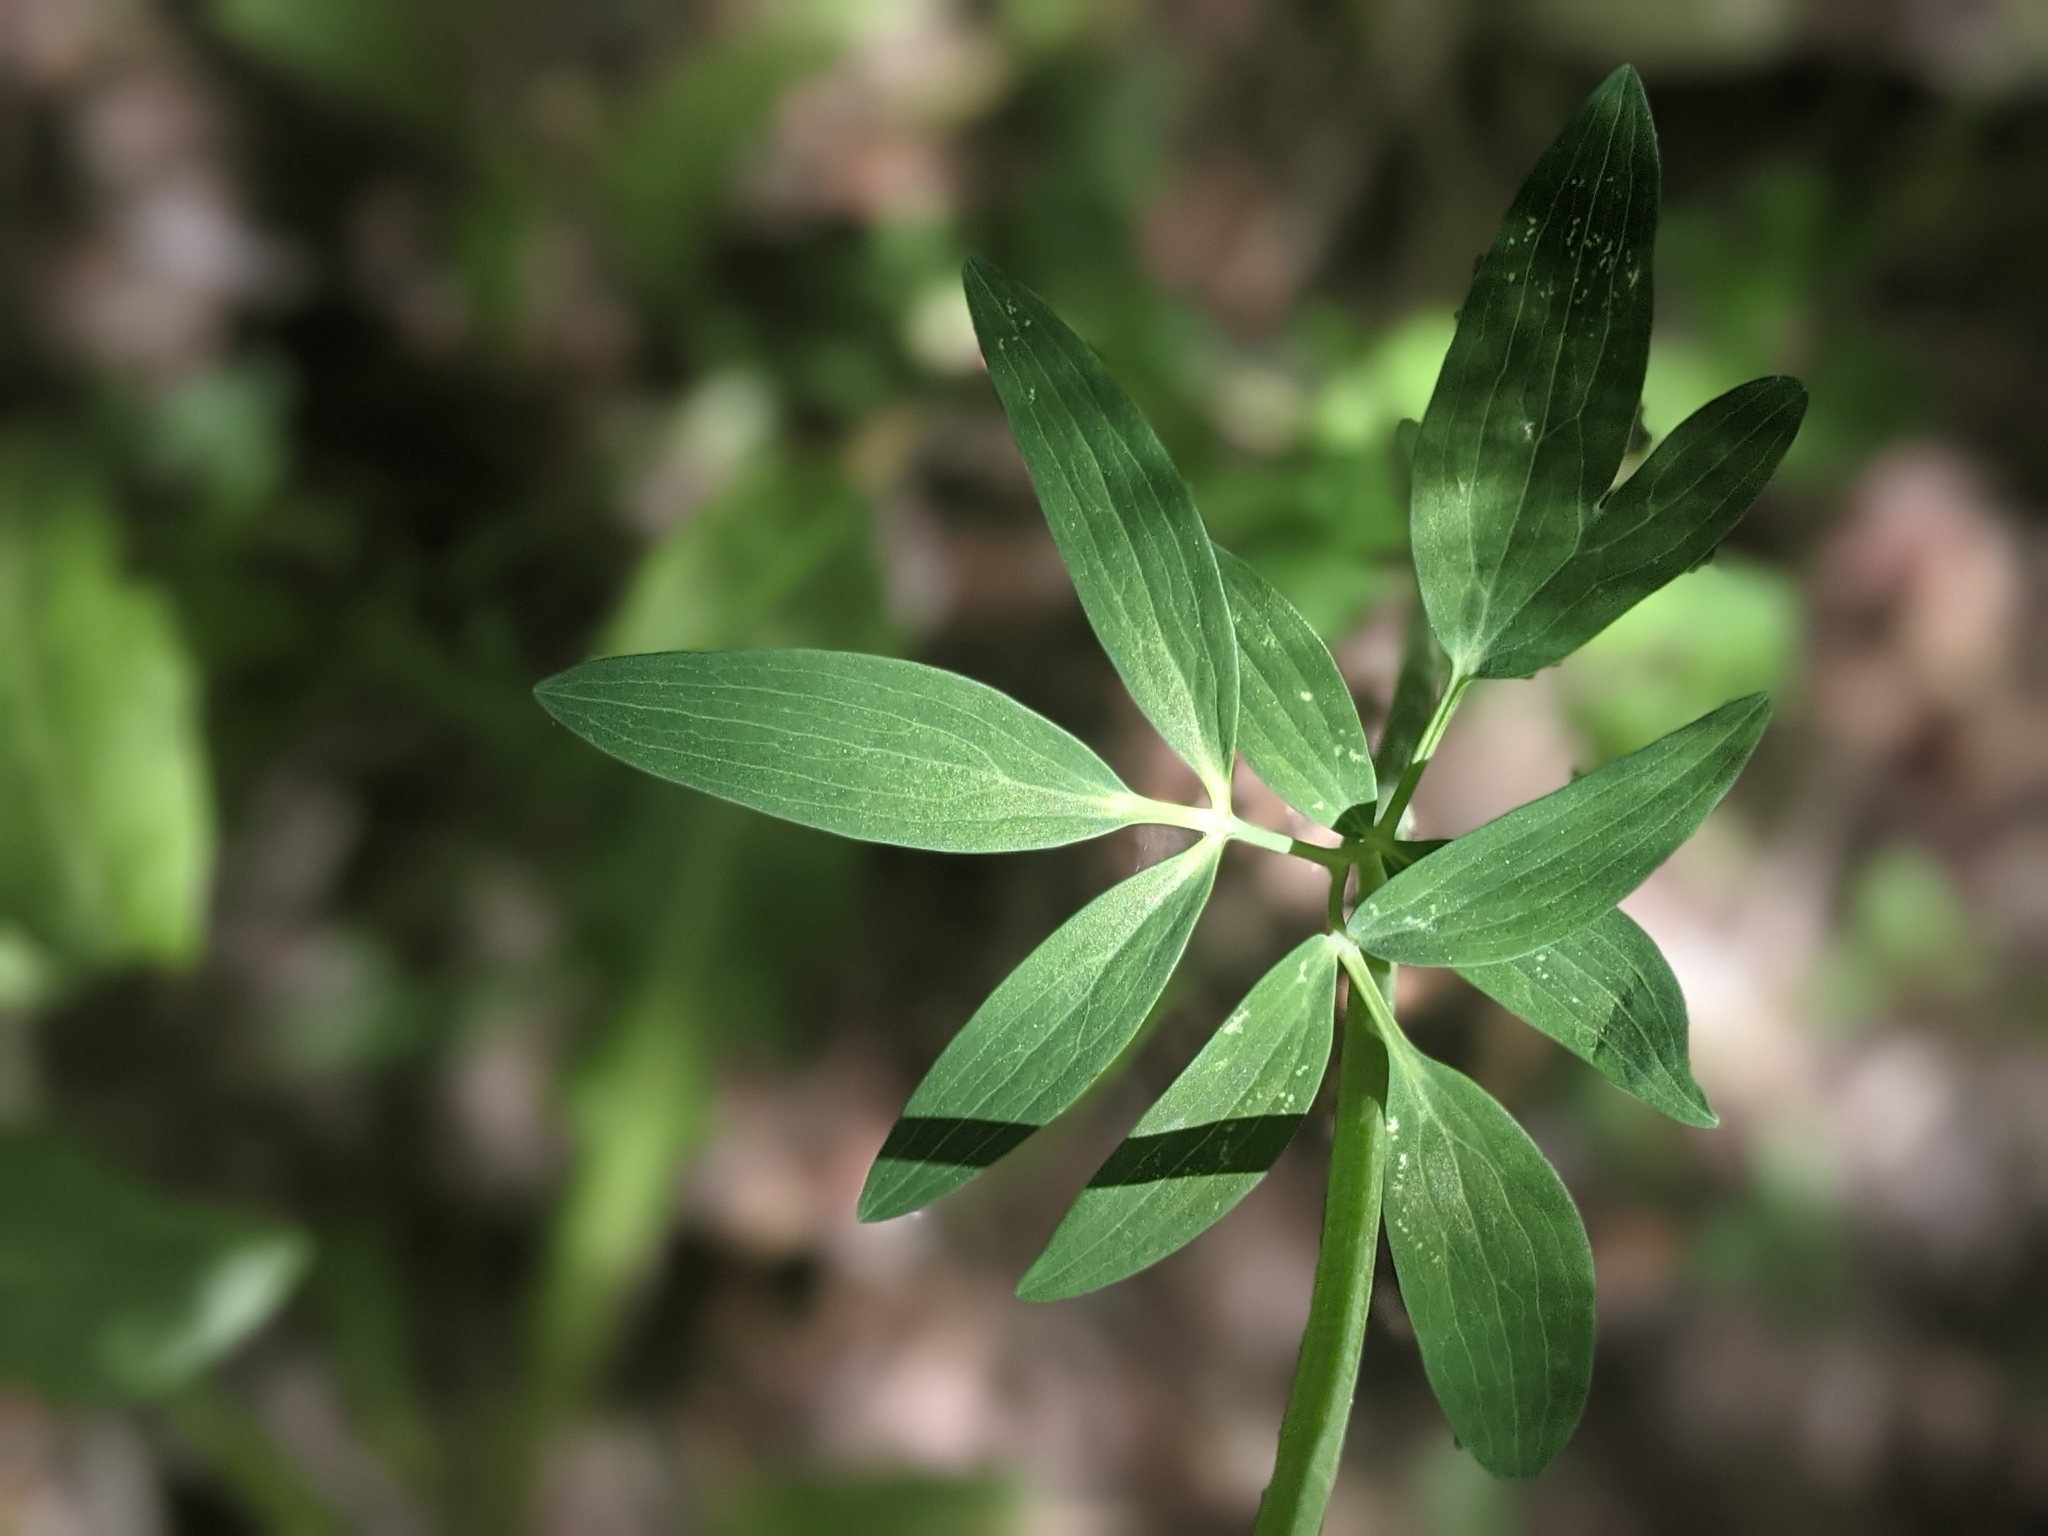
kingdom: Plantae
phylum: Tracheophyta
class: Magnoliopsida
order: Ranunculales
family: Ranunculaceae
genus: Aquilegia
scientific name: Aquilegia formosa
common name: Sitka columbine
